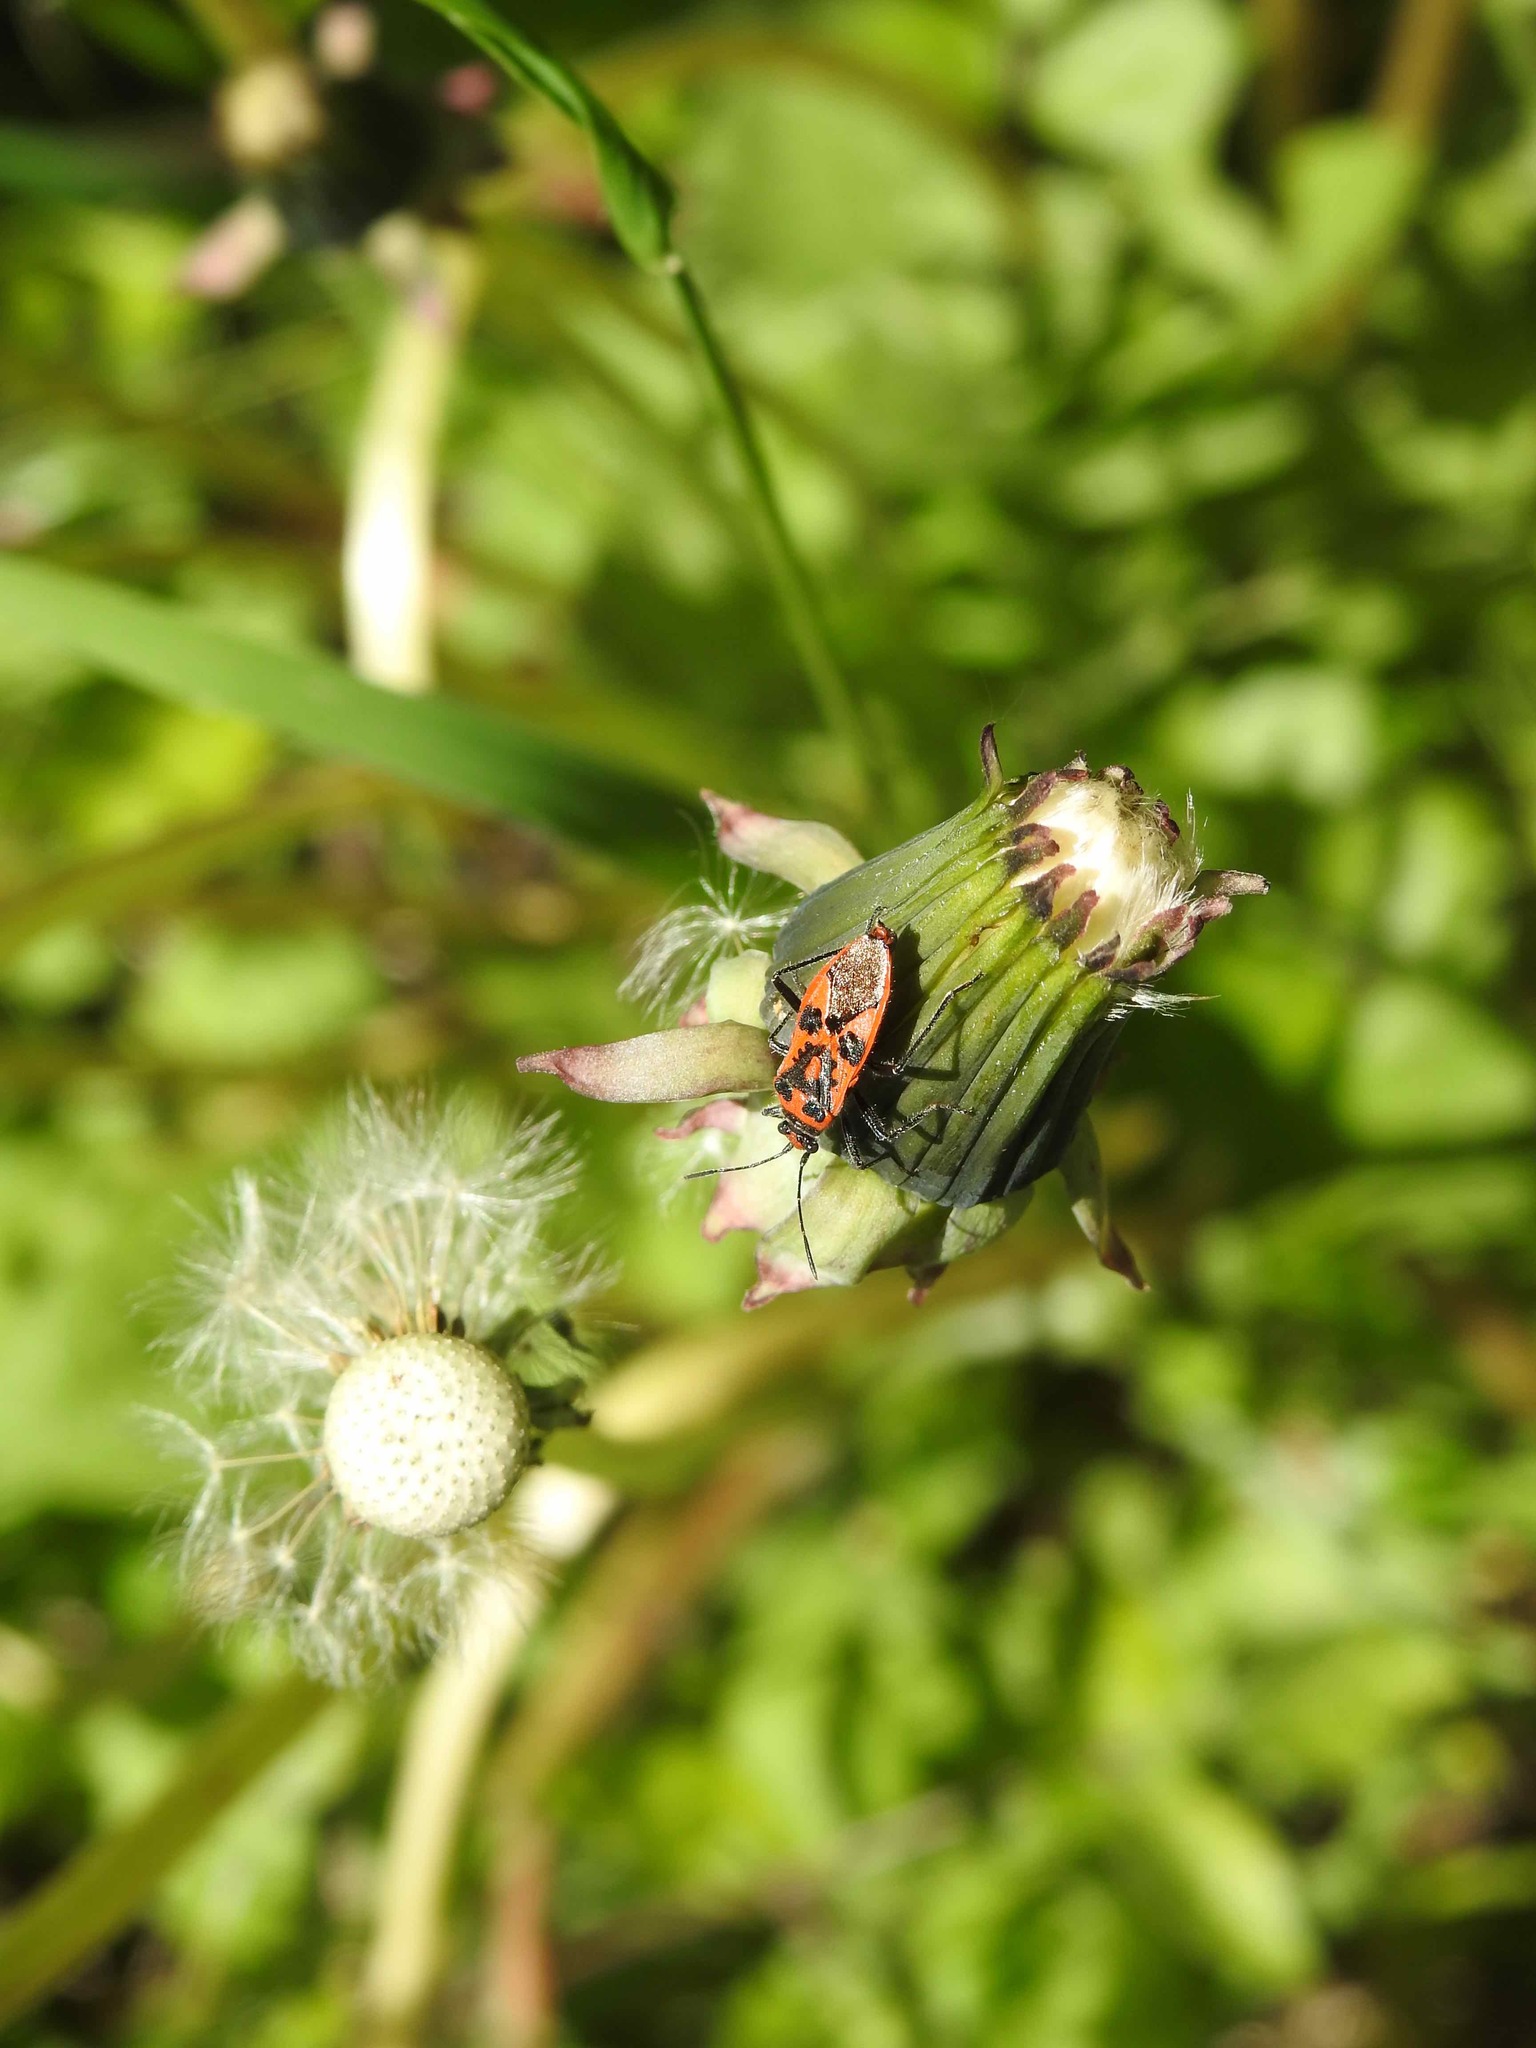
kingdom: Animalia
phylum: Arthropoda
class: Insecta
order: Hemiptera
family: Rhopalidae
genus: Corizus
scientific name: Corizus hyoscyami
